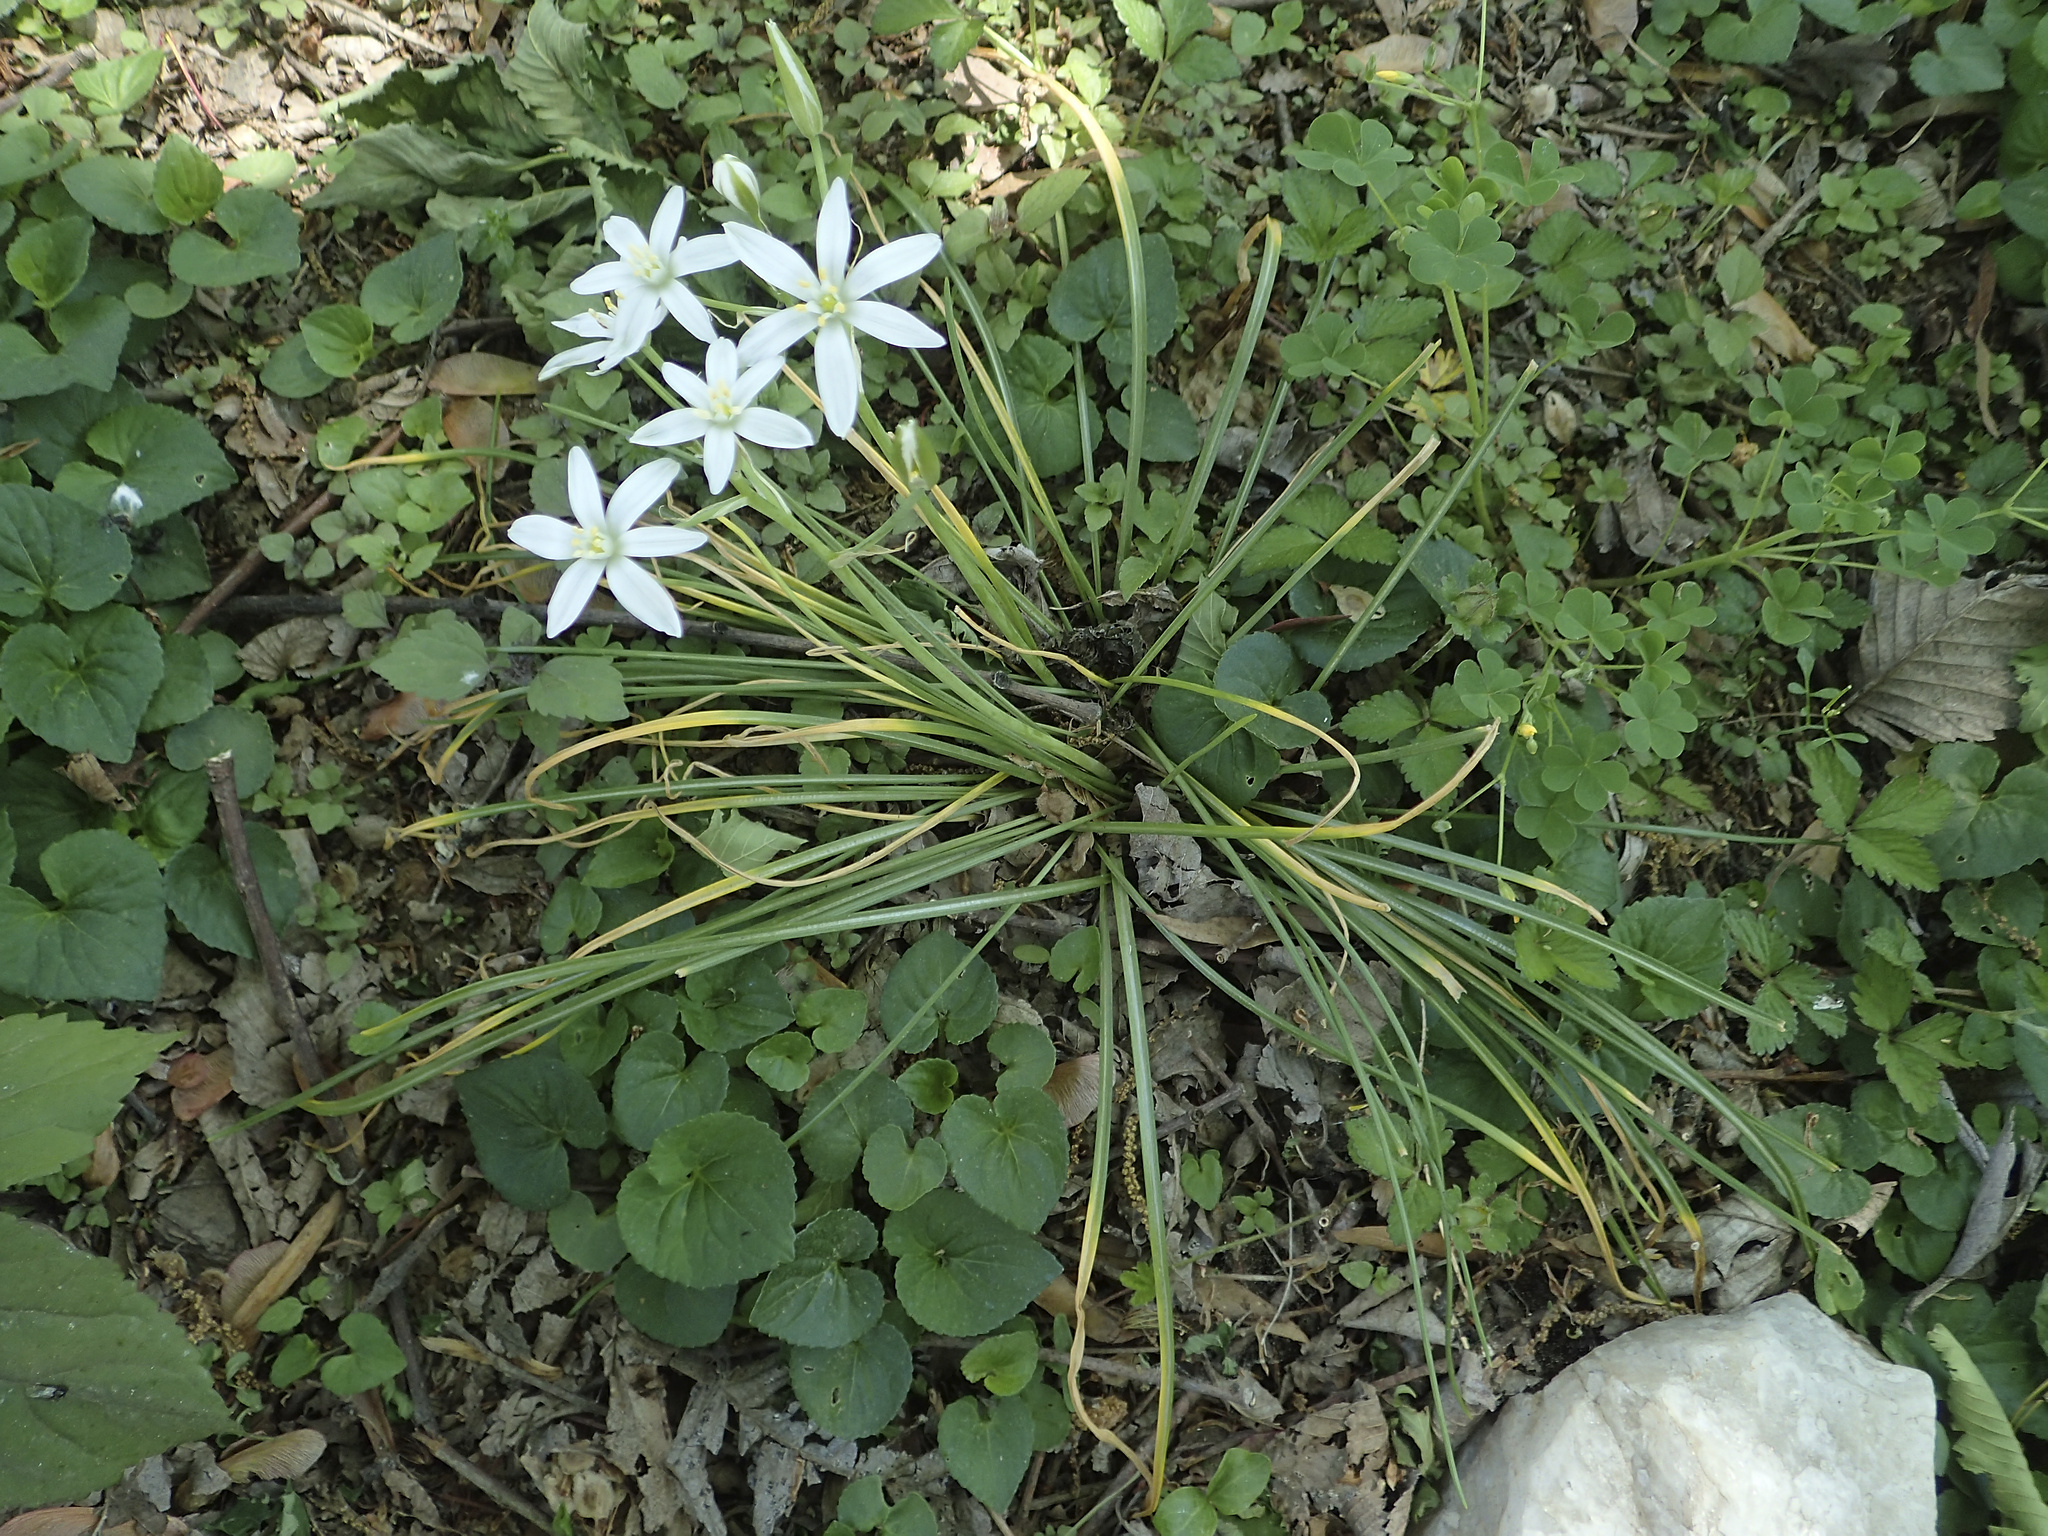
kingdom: Plantae
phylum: Tracheophyta
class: Liliopsida
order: Asparagales
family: Asparagaceae
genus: Ornithogalum
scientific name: Ornithogalum umbellatum
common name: Garden star-of-bethlehem
